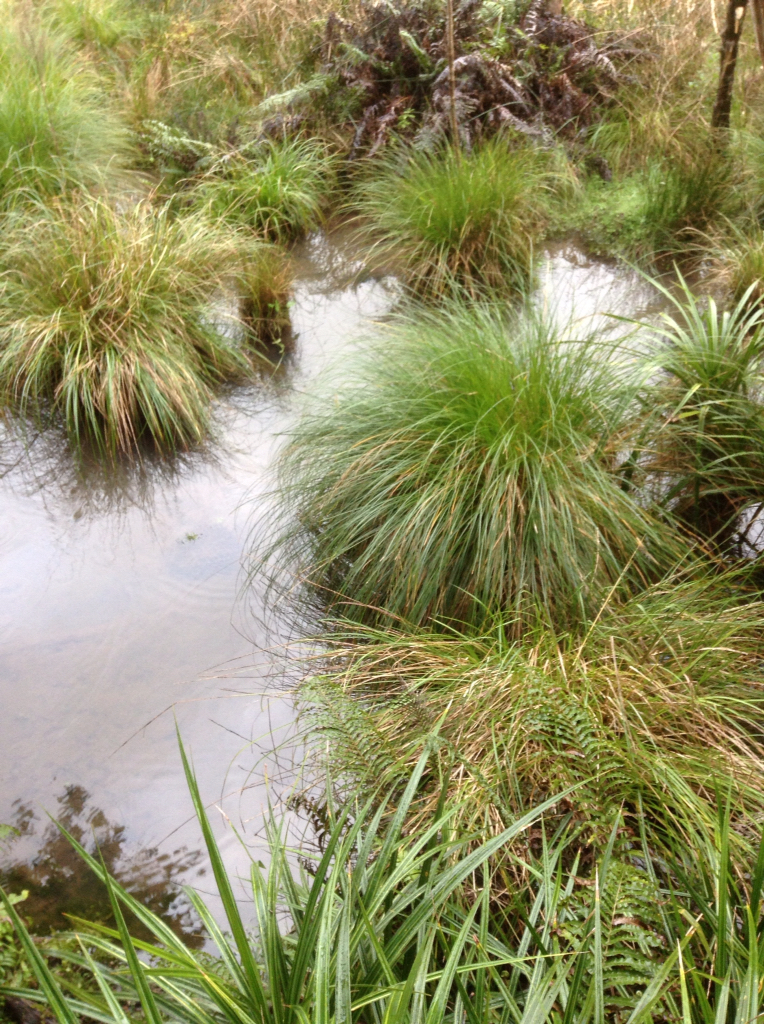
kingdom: Plantae
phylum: Tracheophyta
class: Liliopsida
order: Poales
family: Cyperaceae
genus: Carex
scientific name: Carex secta
